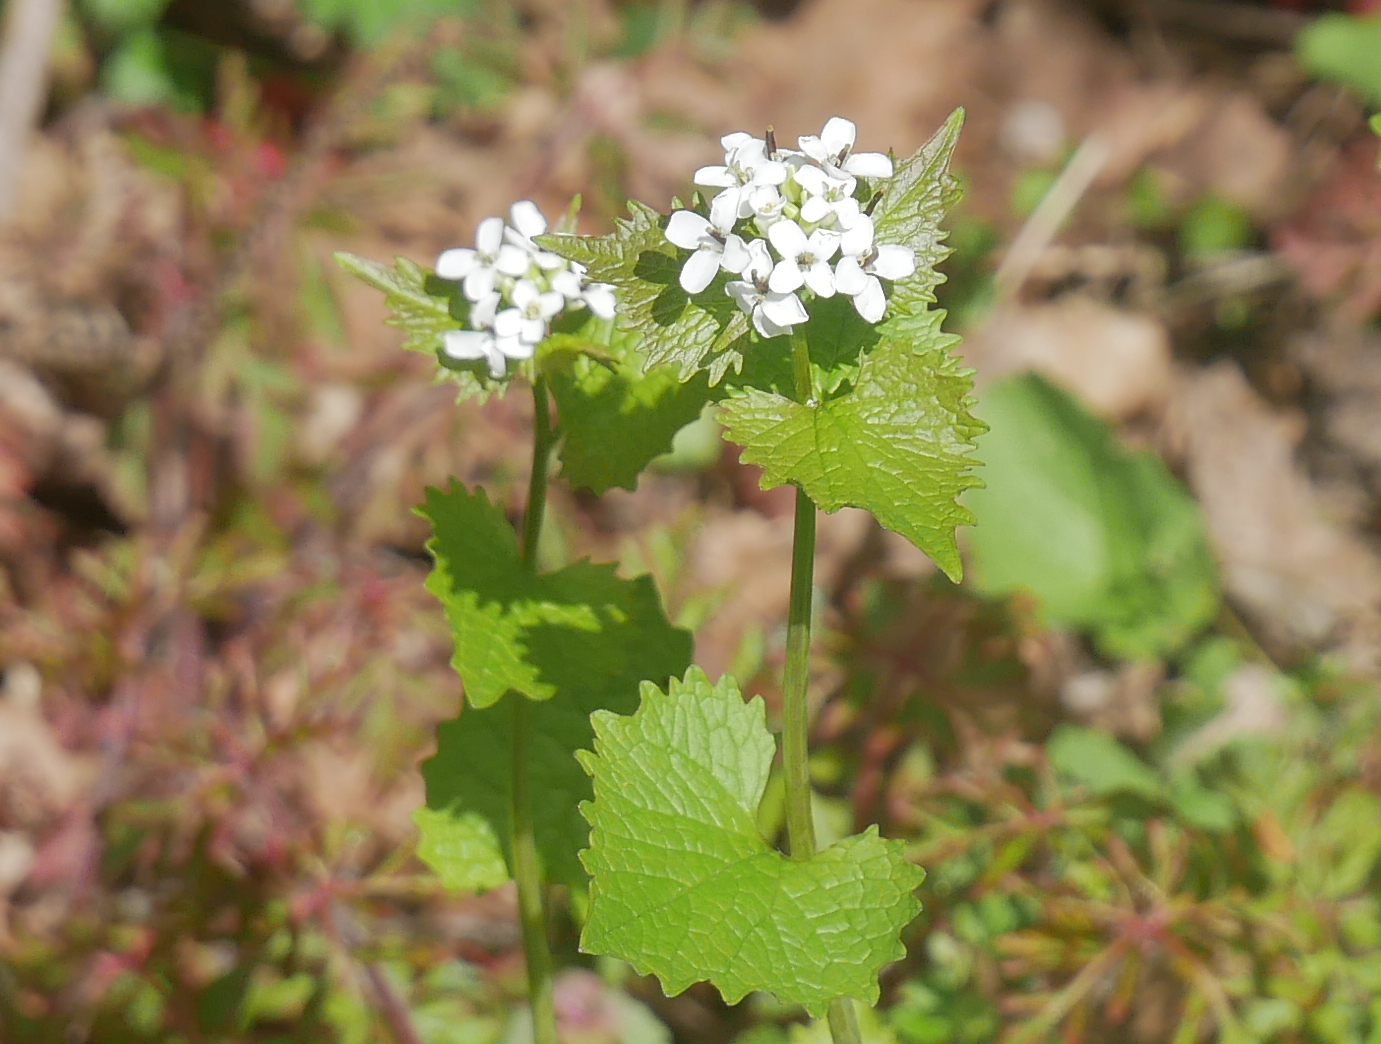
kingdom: Plantae
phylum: Tracheophyta
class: Magnoliopsida
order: Brassicales
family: Brassicaceae
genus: Alliaria
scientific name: Alliaria petiolata
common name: Garlic mustard
